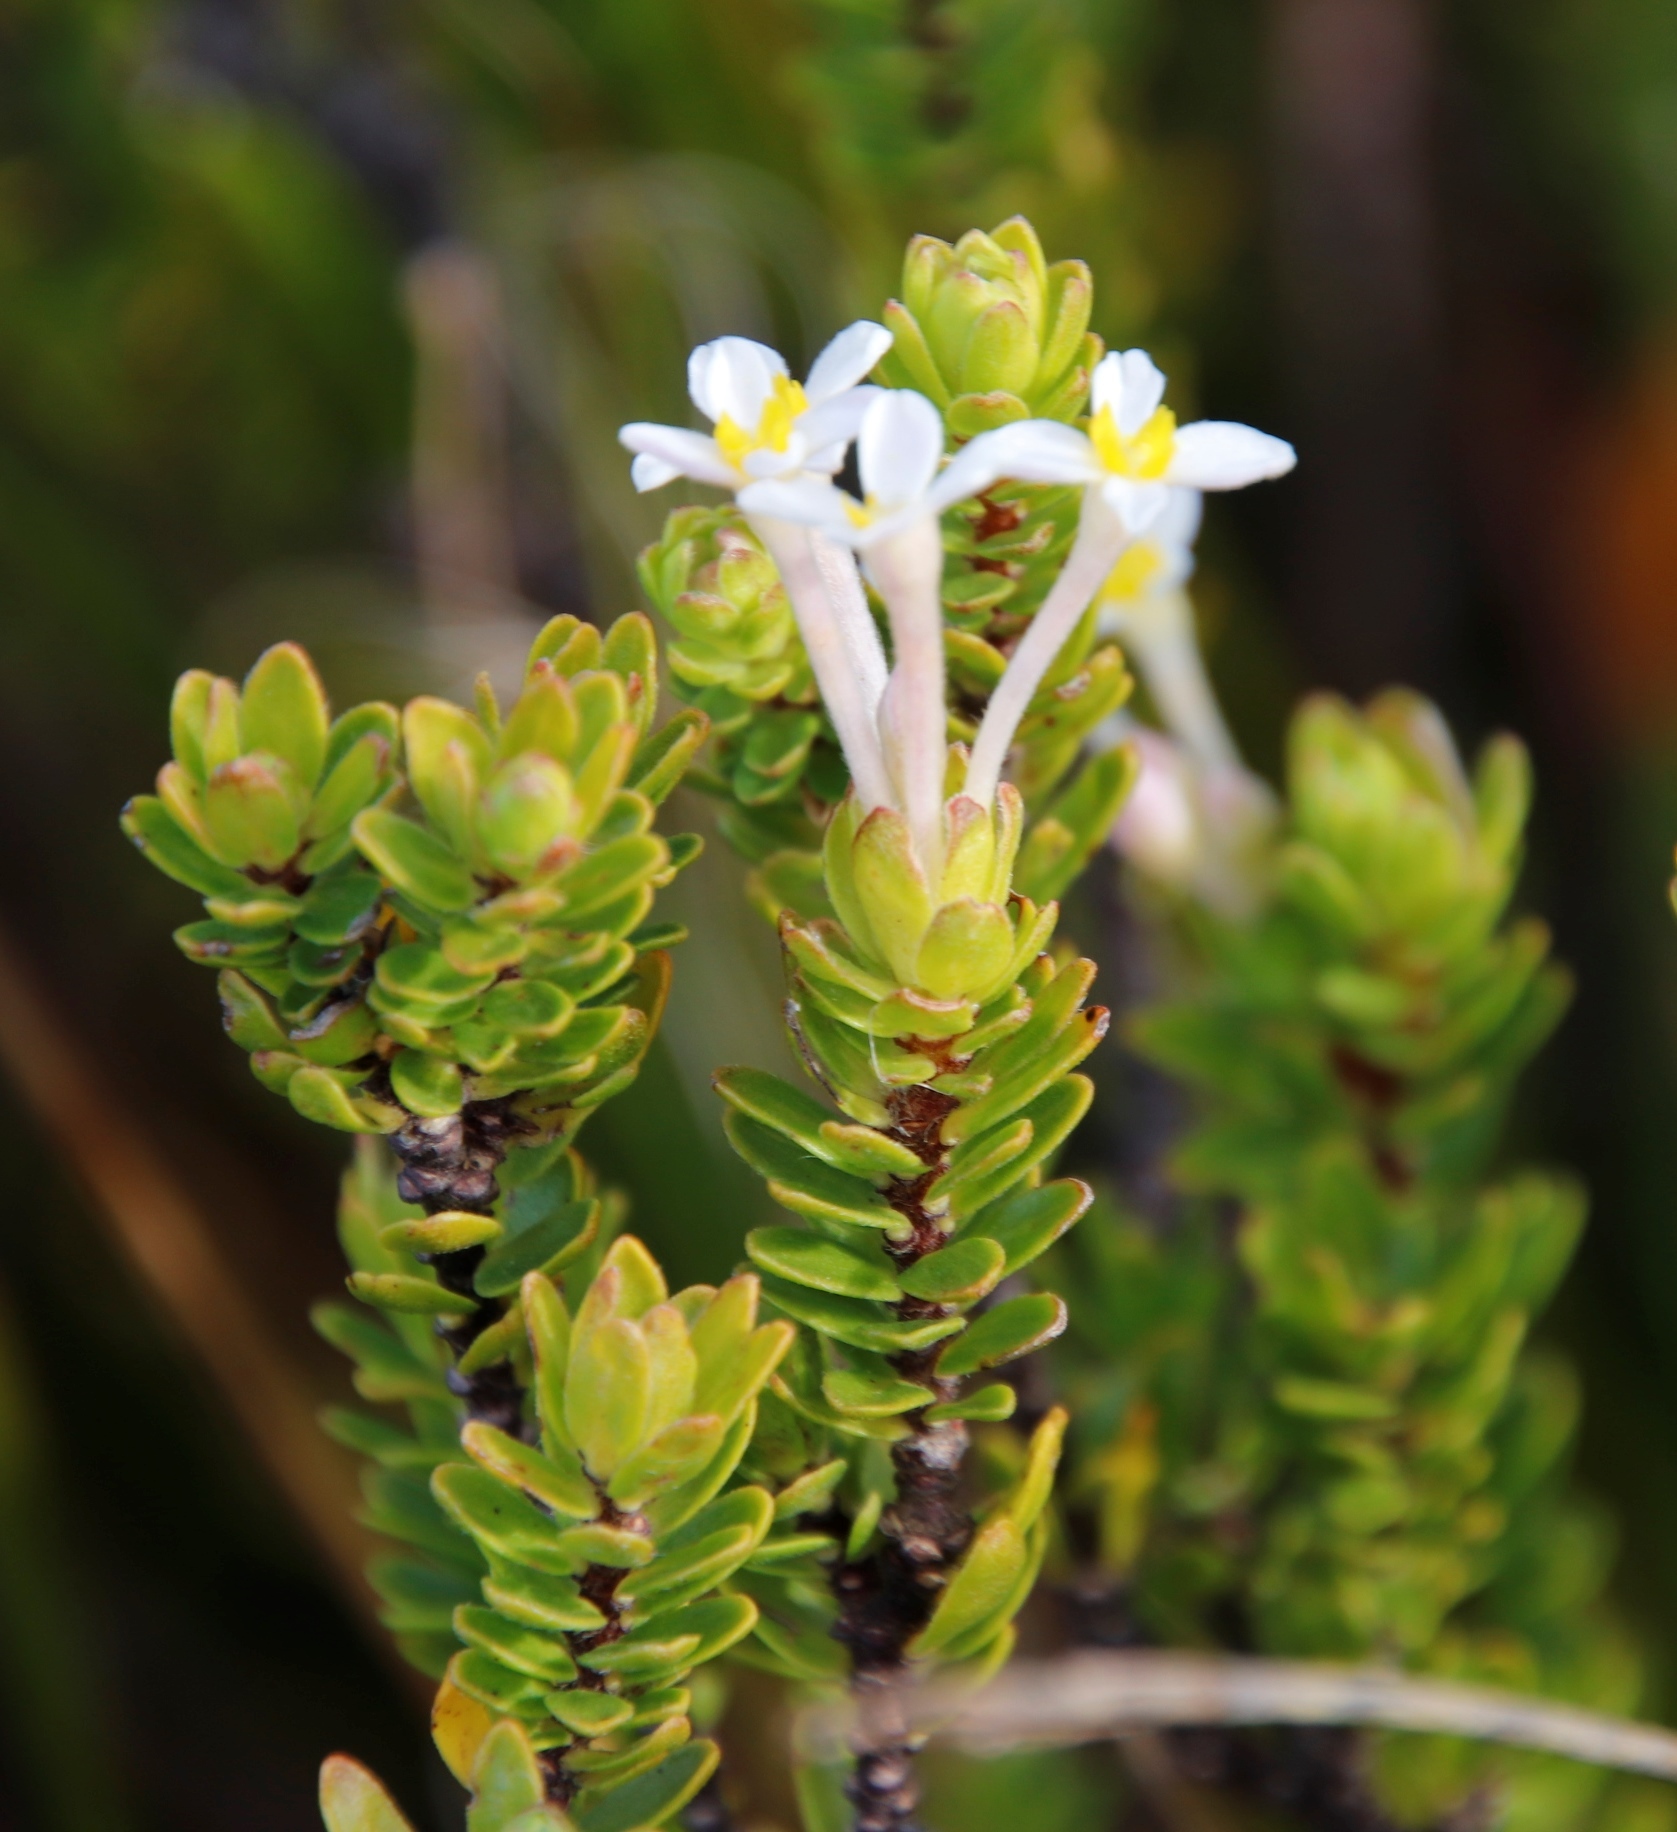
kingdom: Plantae
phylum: Tracheophyta
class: Magnoliopsida
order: Malvales
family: Thymelaeaceae
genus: Gnidia
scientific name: Gnidia tomentosa
